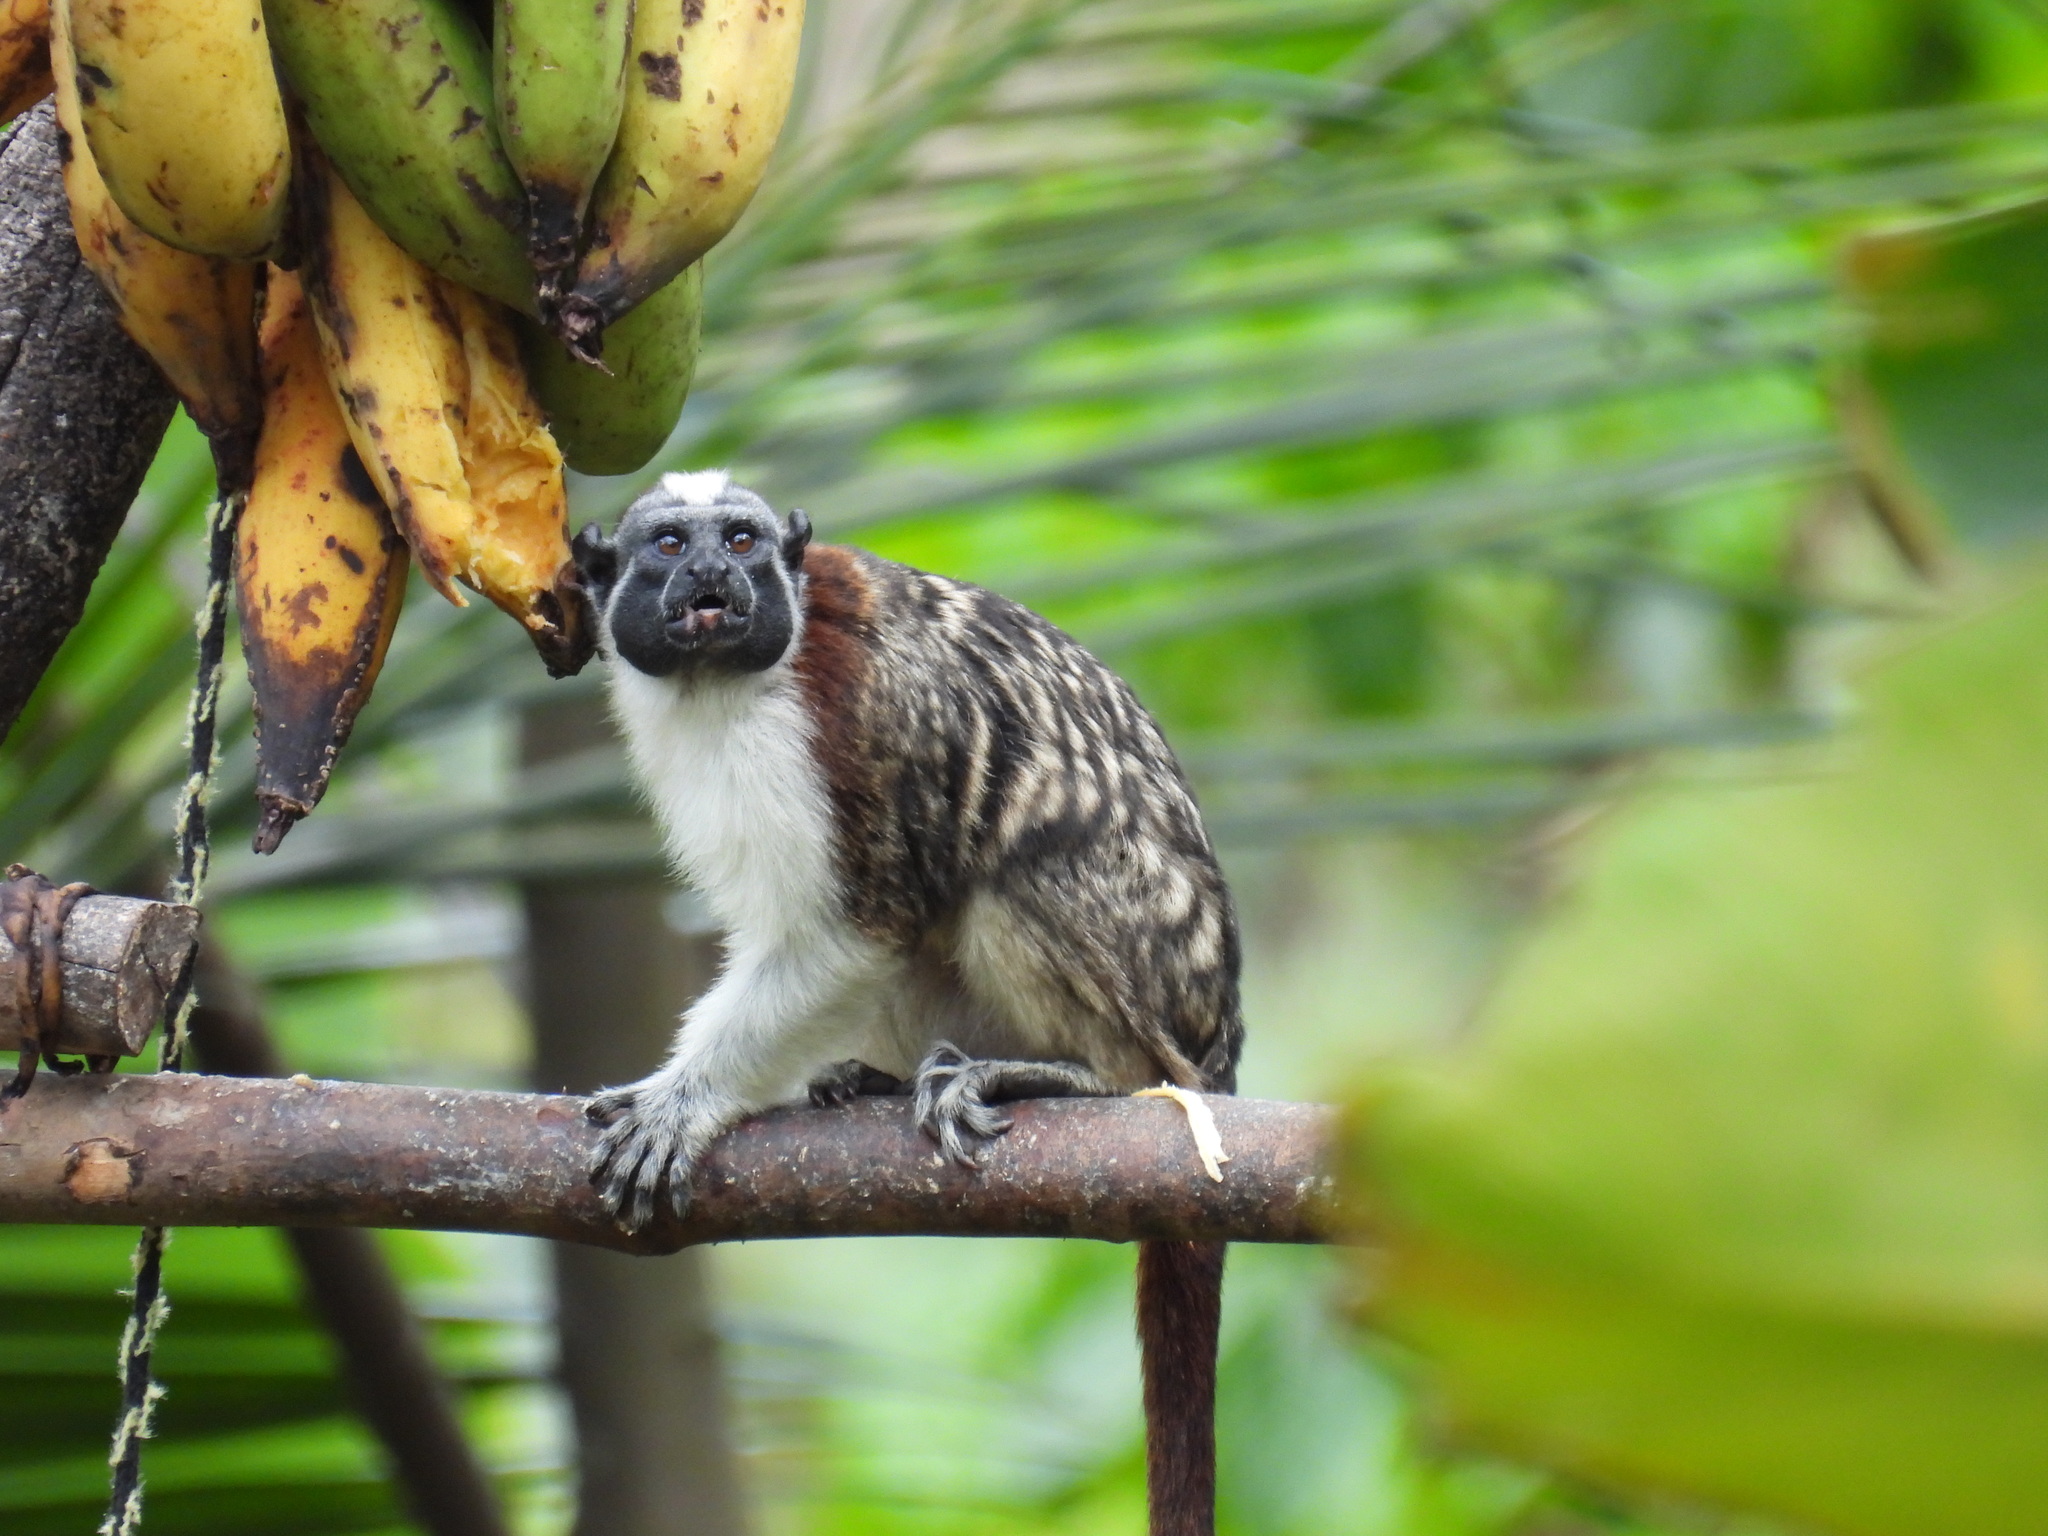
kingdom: Animalia
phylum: Chordata
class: Mammalia
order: Primates
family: Callitrichidae
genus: Saguinus
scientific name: Saguinus geoffroyi
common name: Geoffroy s tamarin
